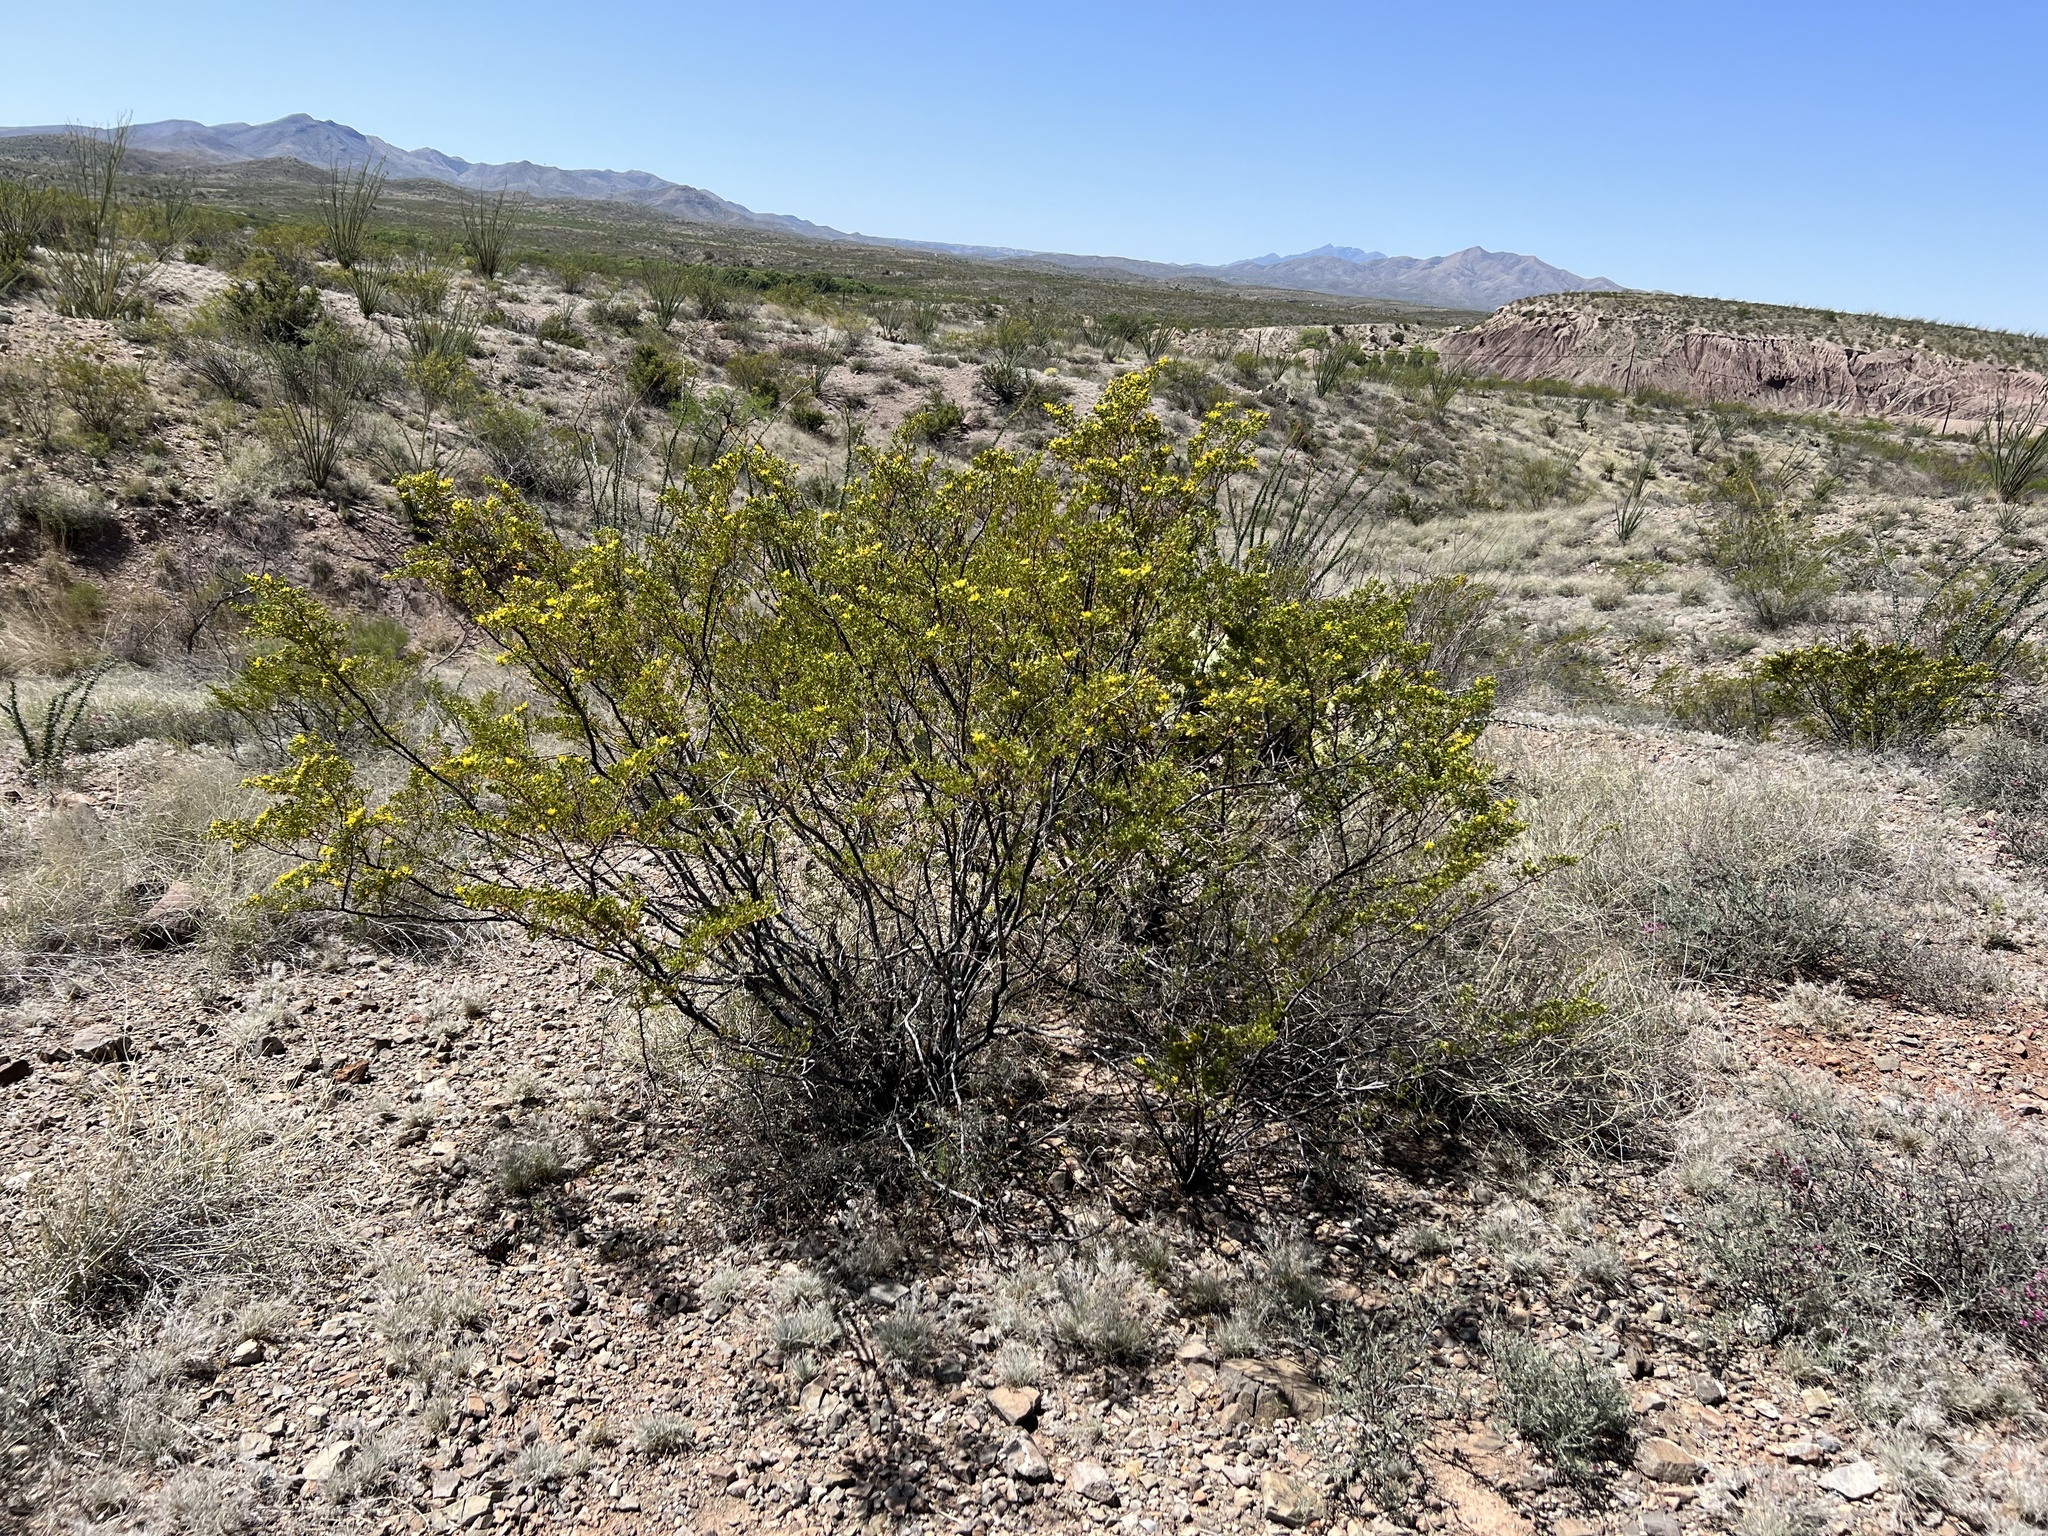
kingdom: Plantae
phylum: Tracheophyta
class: Magnoliopsida
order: Zygophyllales
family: Zygophyllaceae
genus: Larrea
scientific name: Larrea tridentata
